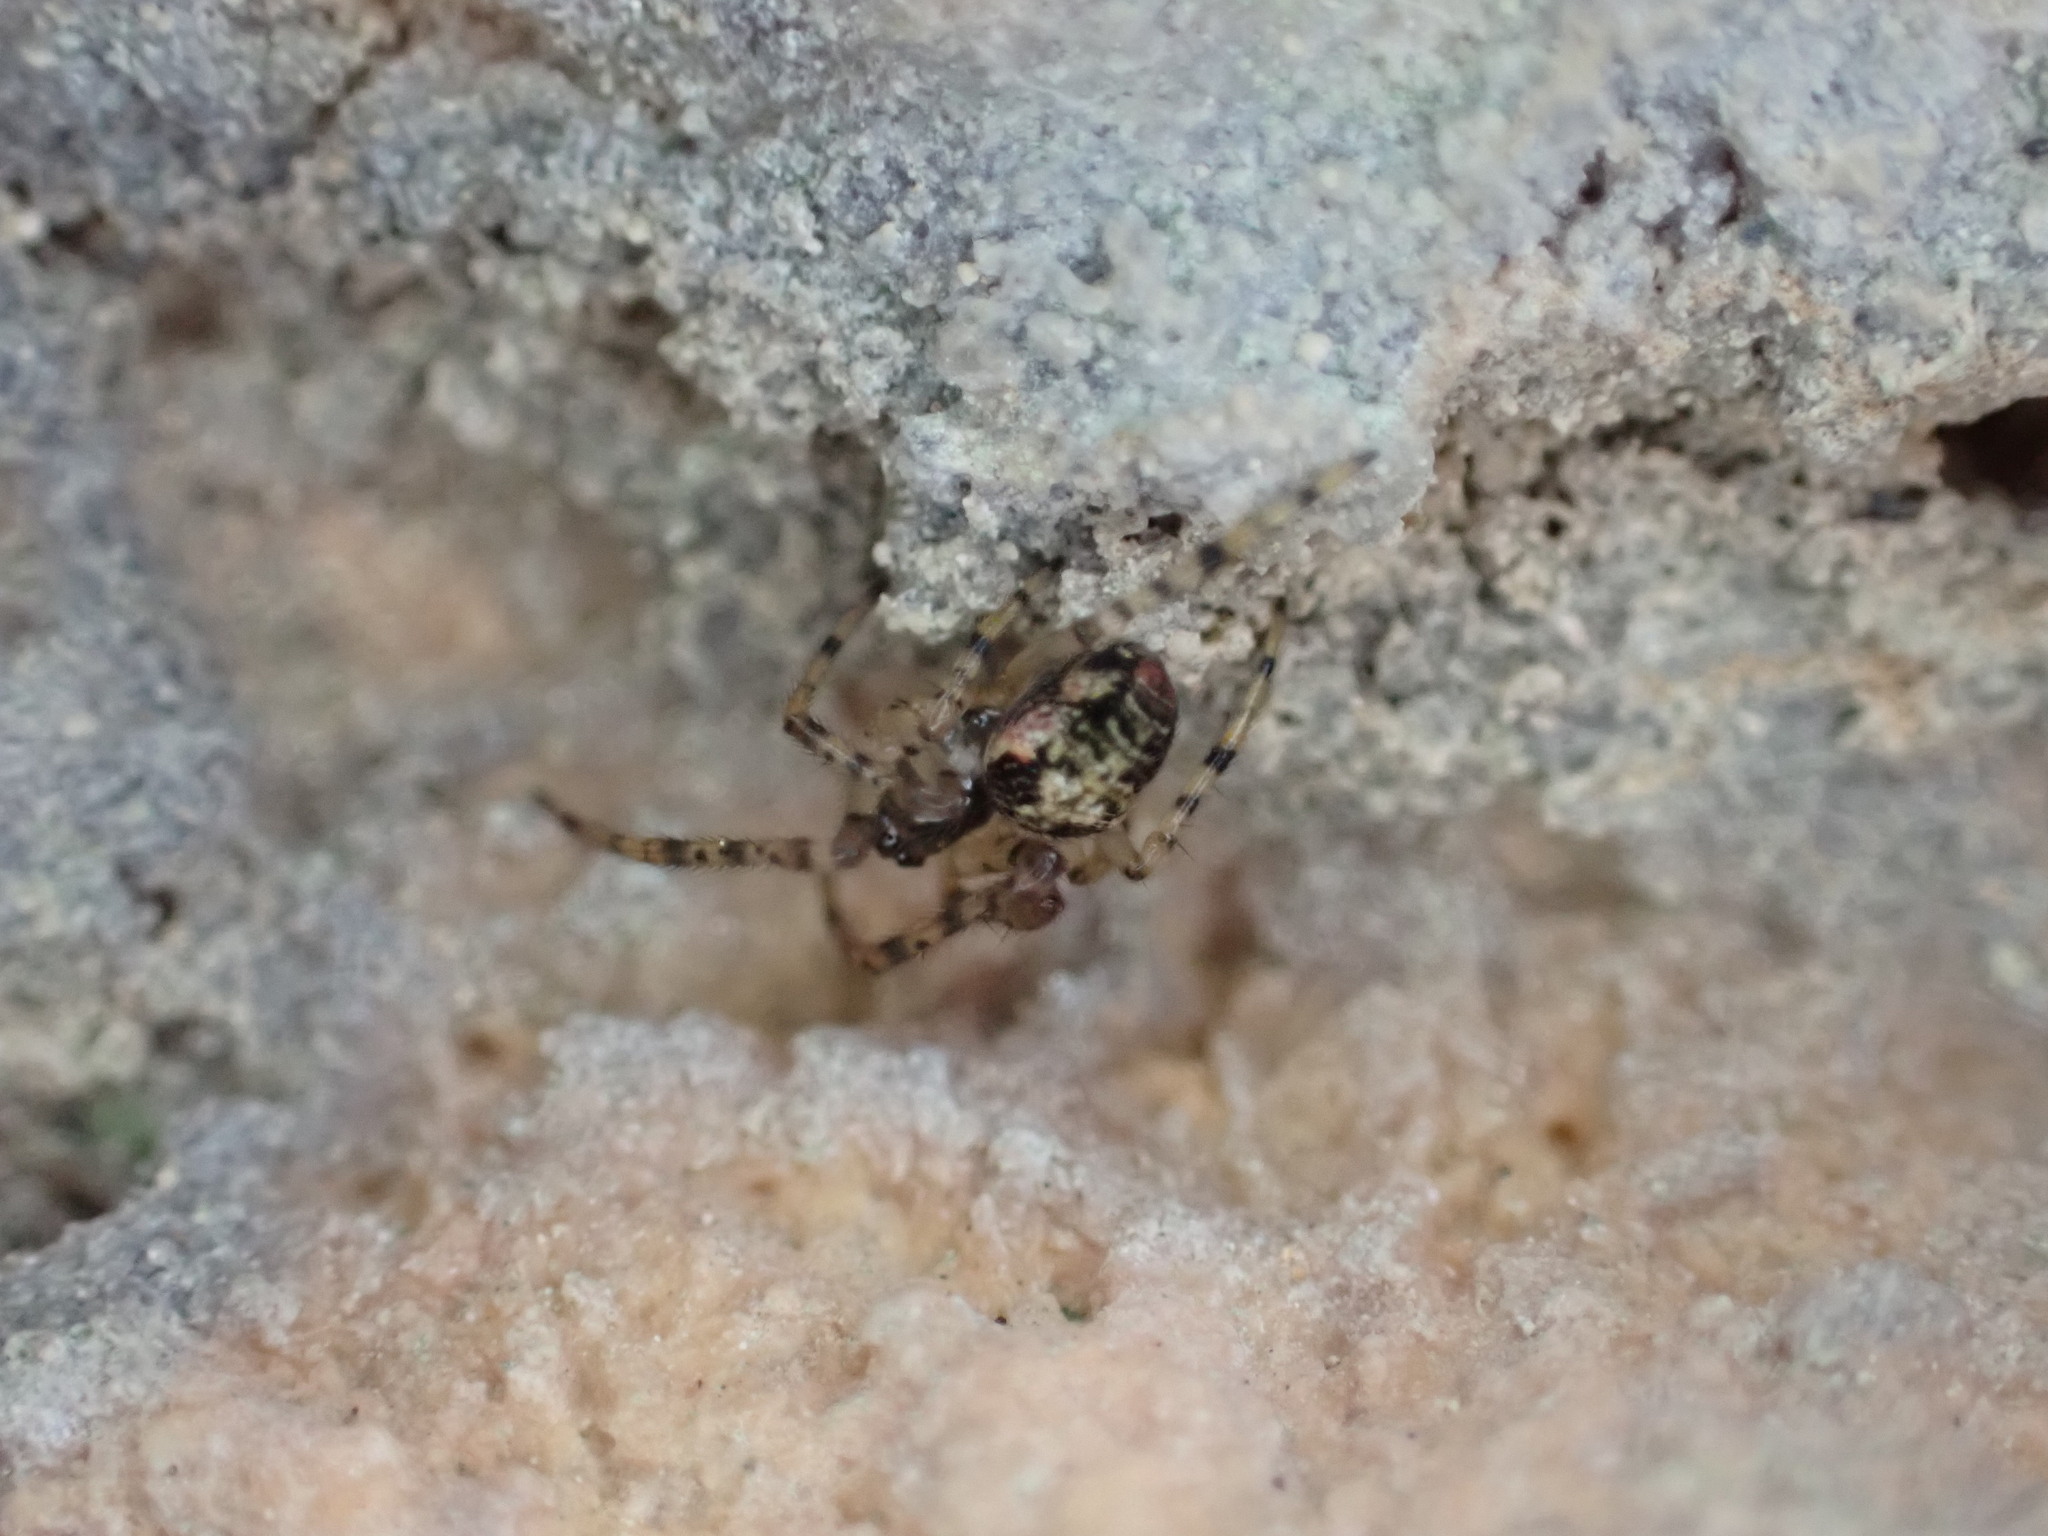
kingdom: Animalia
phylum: Arthropoda
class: Arachnida
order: Araneae
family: Tetragnathidae
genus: Metellina
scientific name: Metellina merianae
